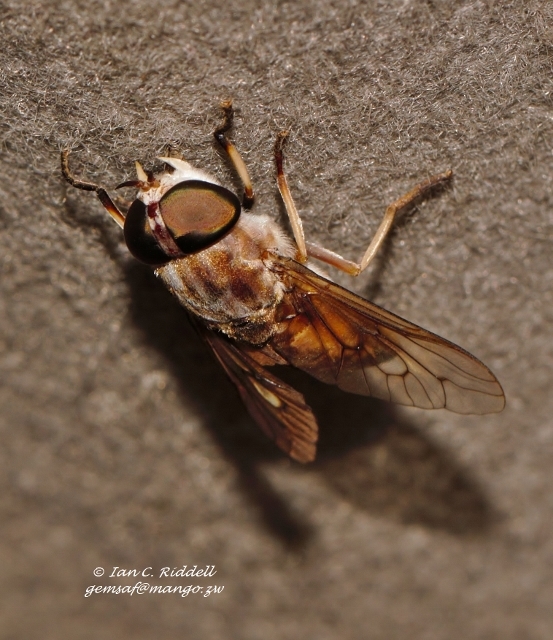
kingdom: Animalia
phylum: Arthropoda
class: Insecta
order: Diptera
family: Tabanidae
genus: Tabanus
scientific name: Tabanus fraternus
